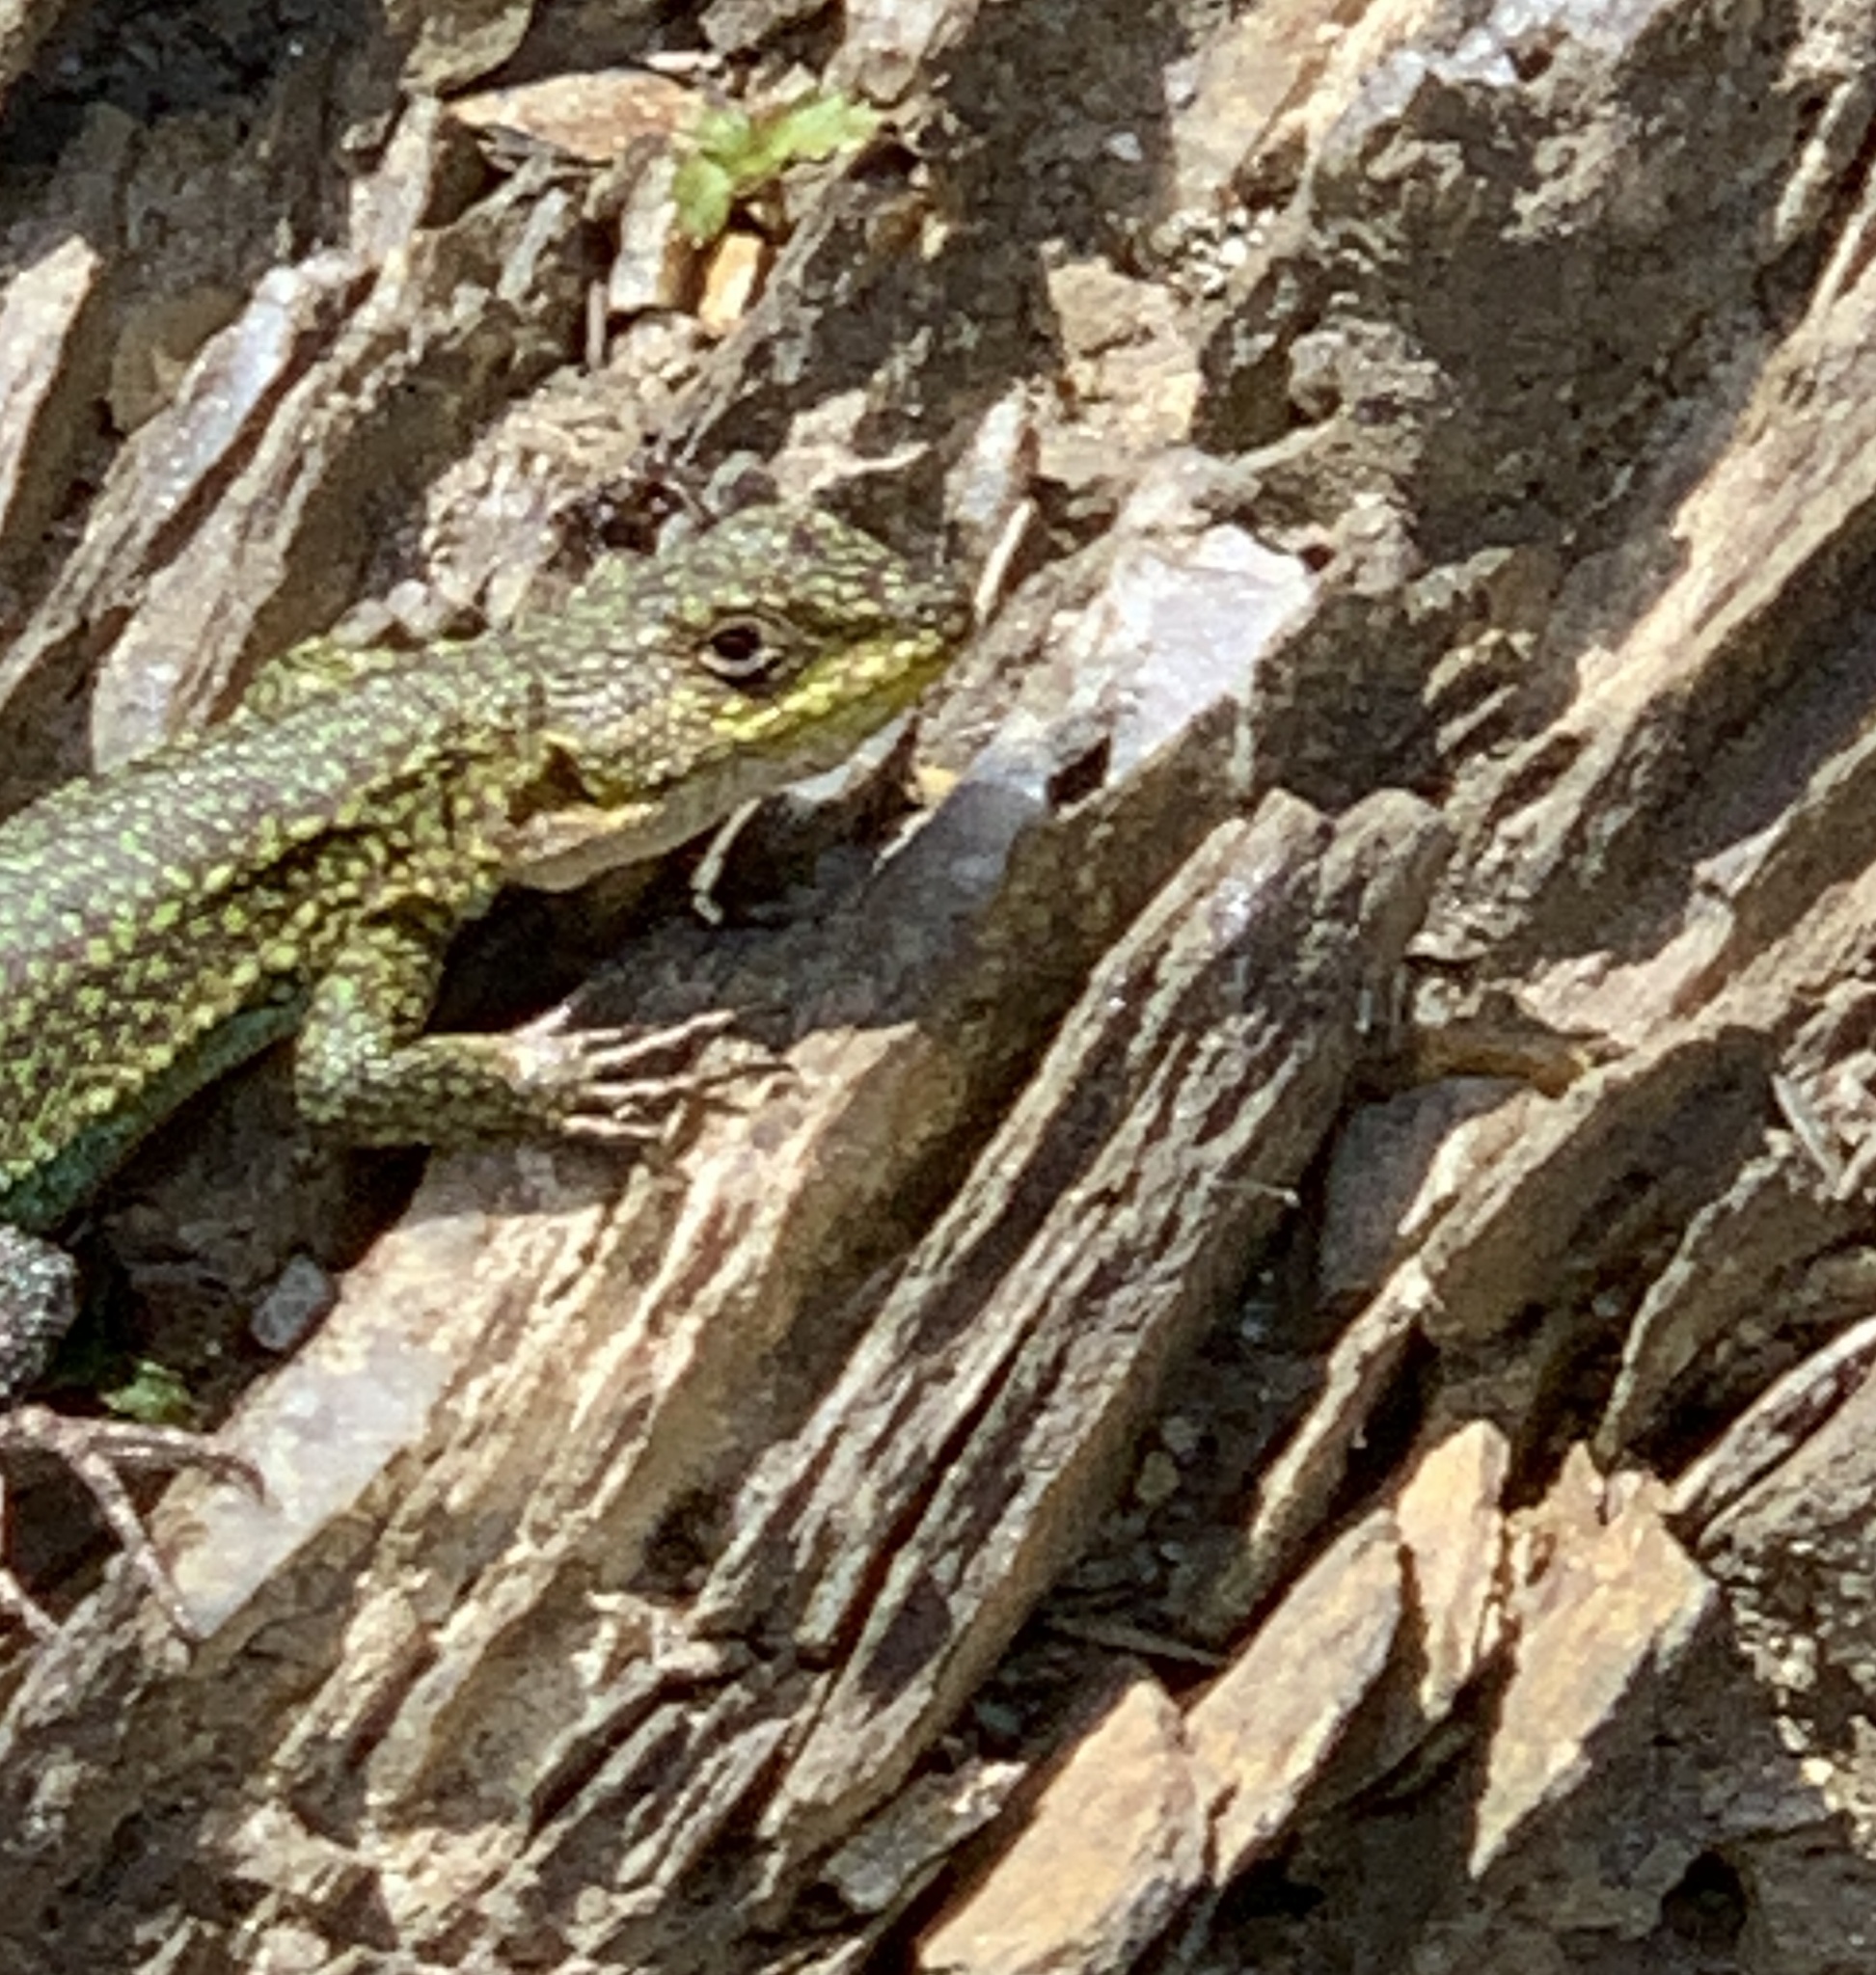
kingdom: Animalia
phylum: Chordata
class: Squamata
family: Liolaemidae
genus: Liolaemus
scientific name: Liolaemus tenuis
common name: Thin tree iguana
